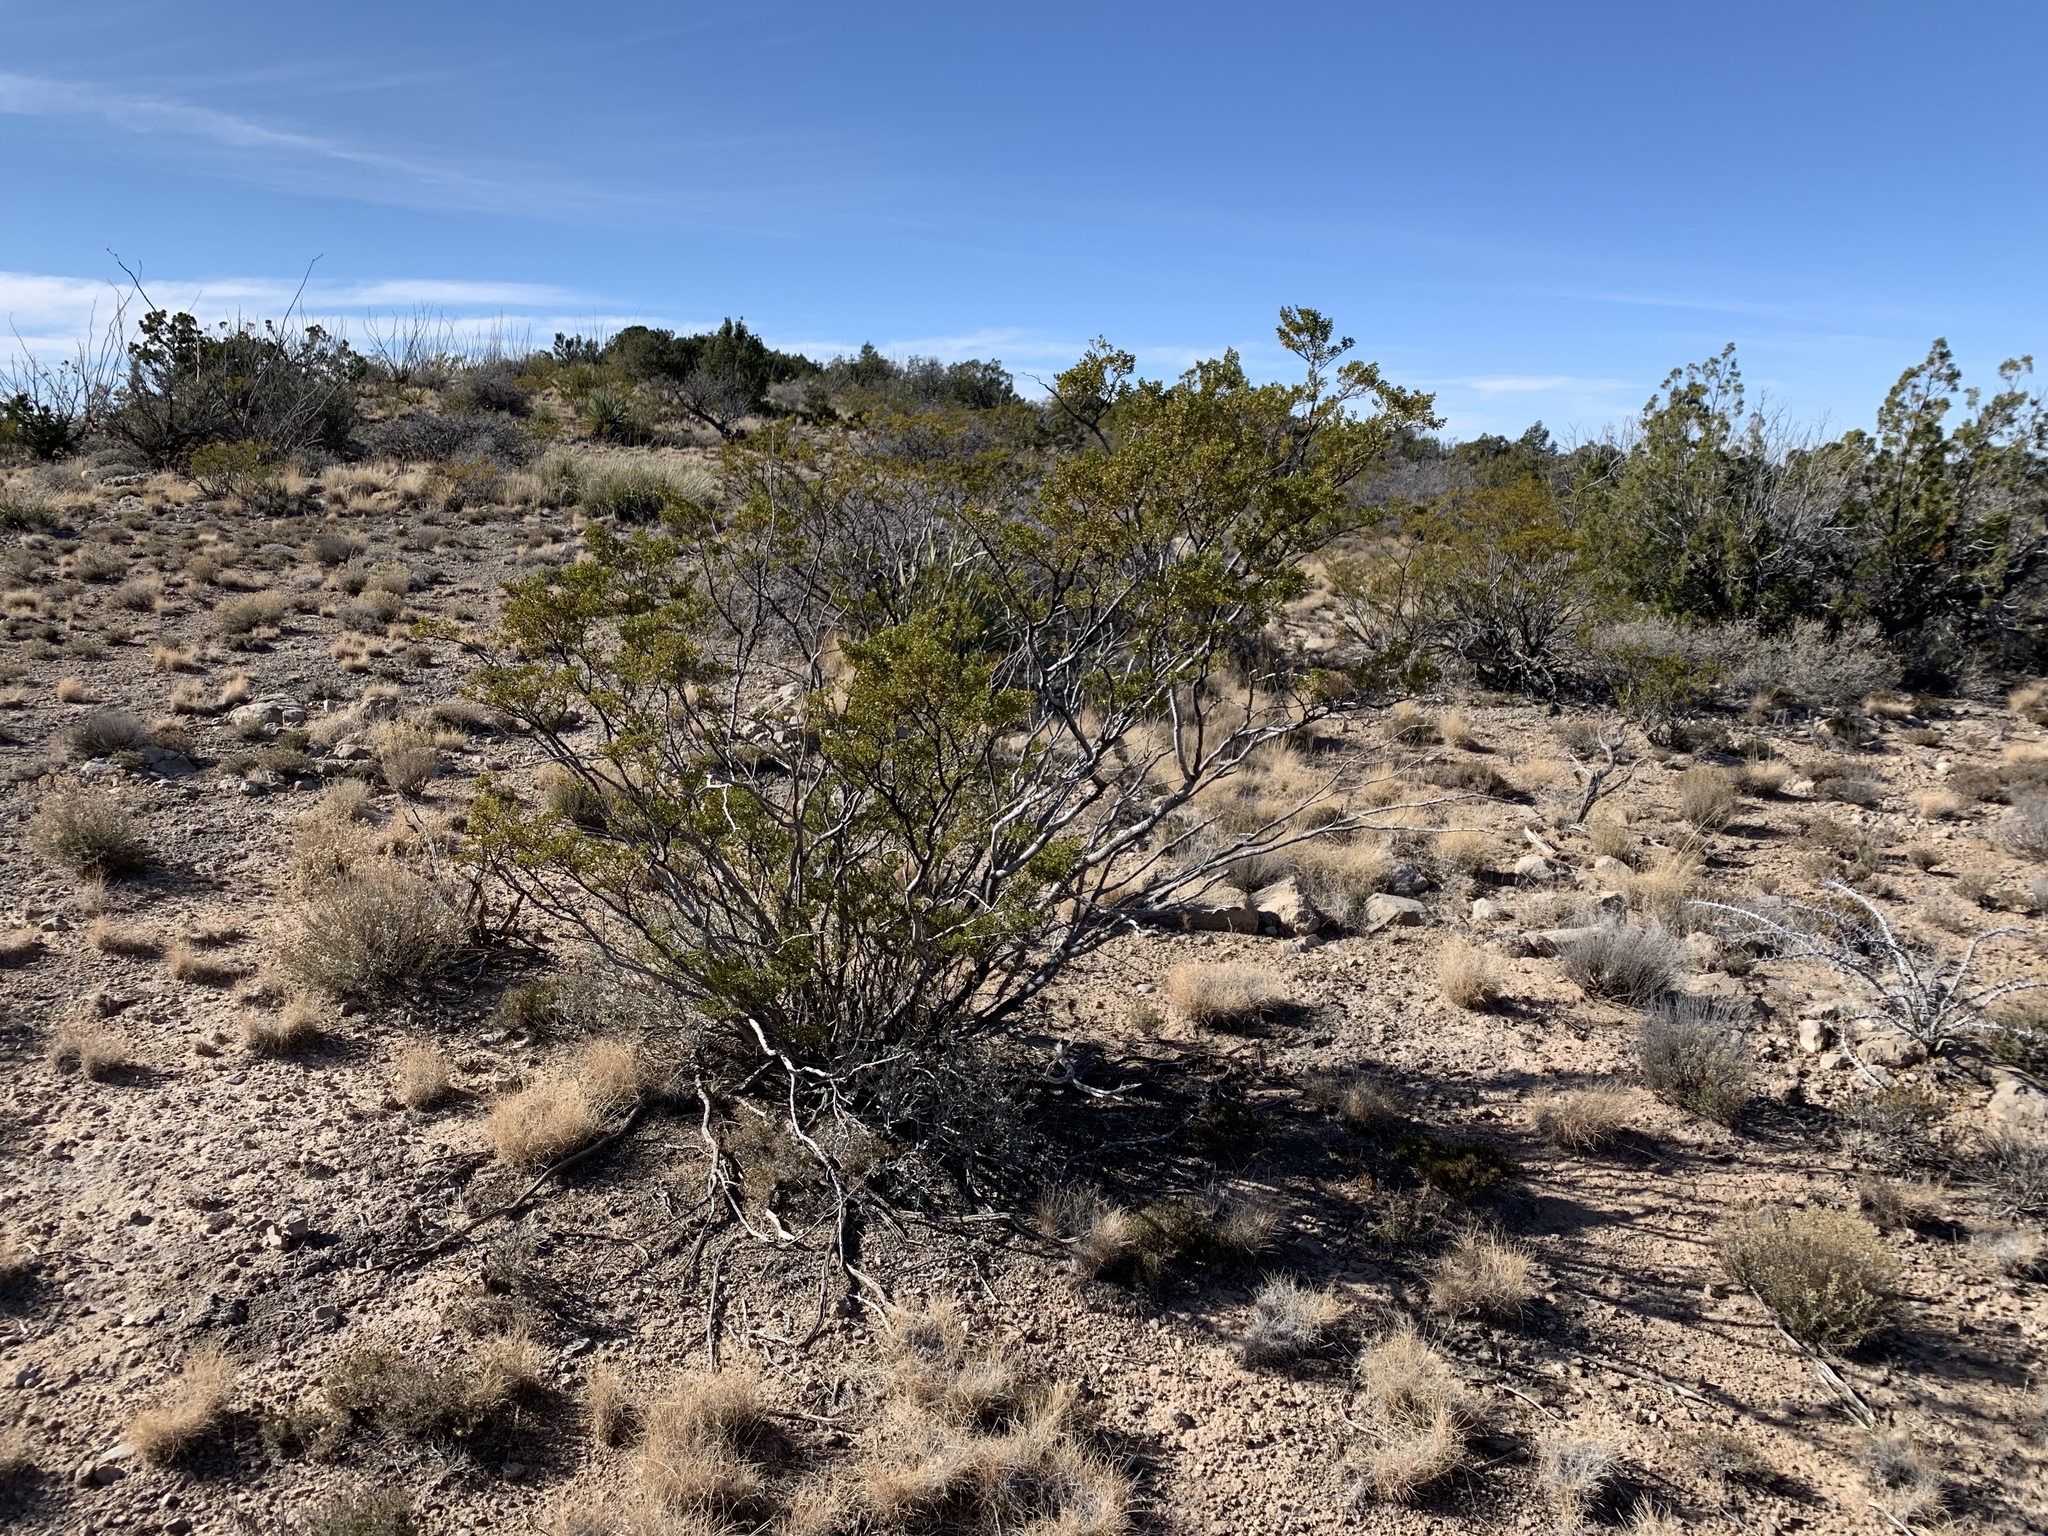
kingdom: Plantae
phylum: Tracheophyta
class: Magnoliopsida
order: Zygophyllales
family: Zygophyllaceae
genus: Larrea
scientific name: Larrea tridentata
